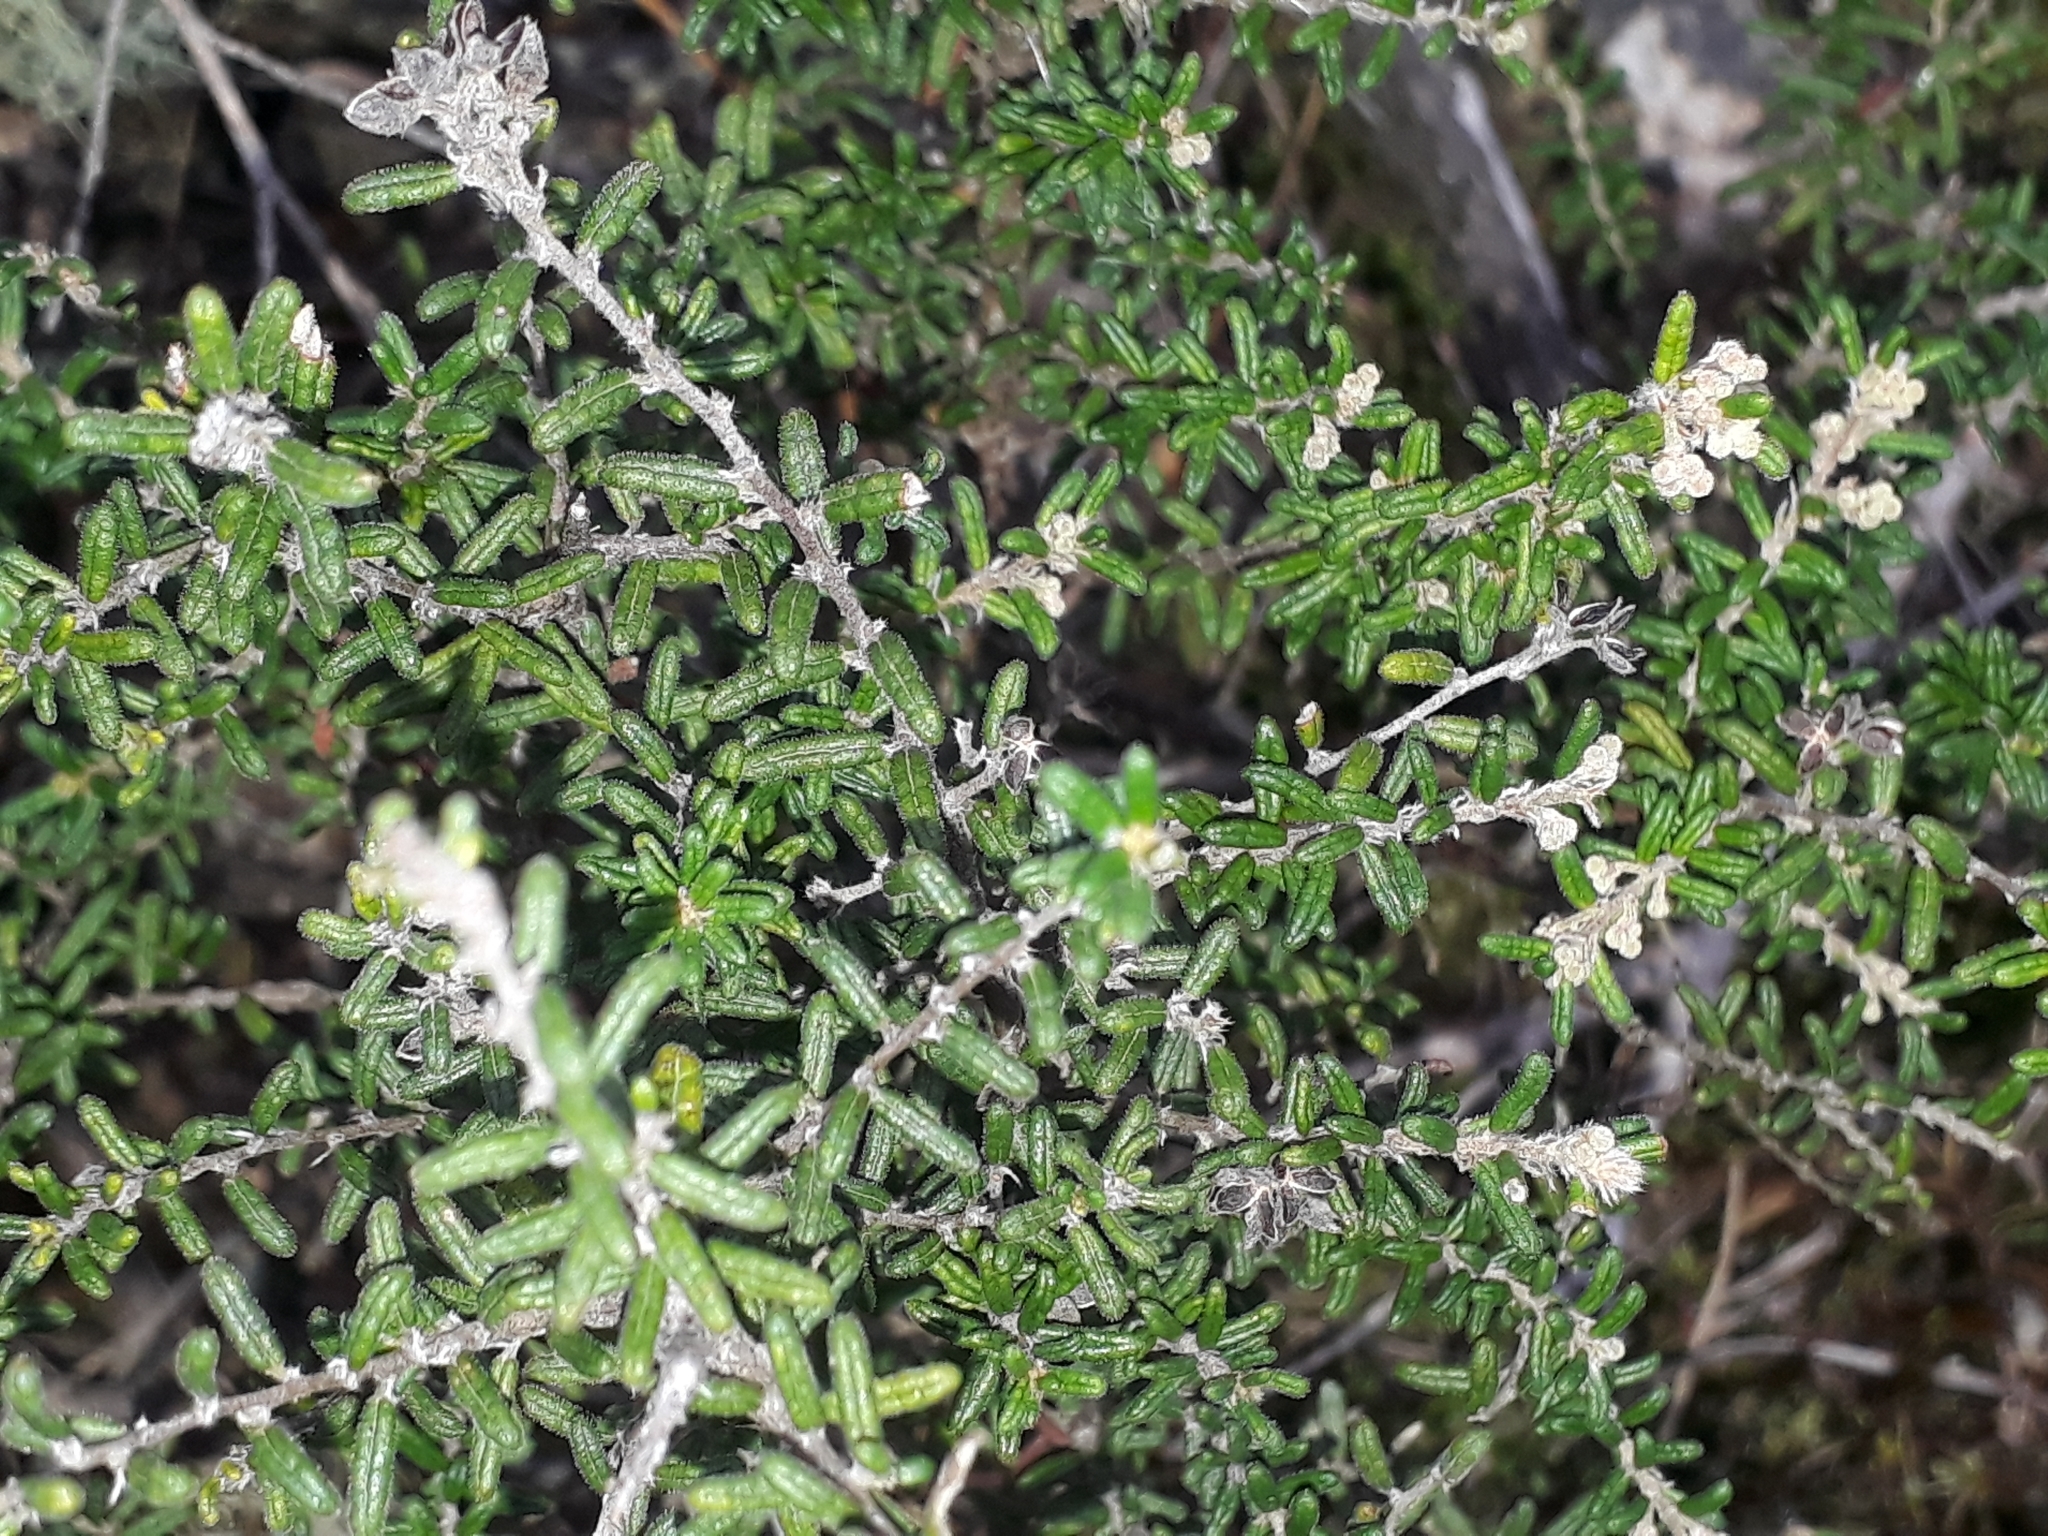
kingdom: Plantae
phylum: Tracheophyta
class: Magnoliopsida
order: Rosales
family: Rhamnaceae
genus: Pomaderris
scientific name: Pomaderris amoena
